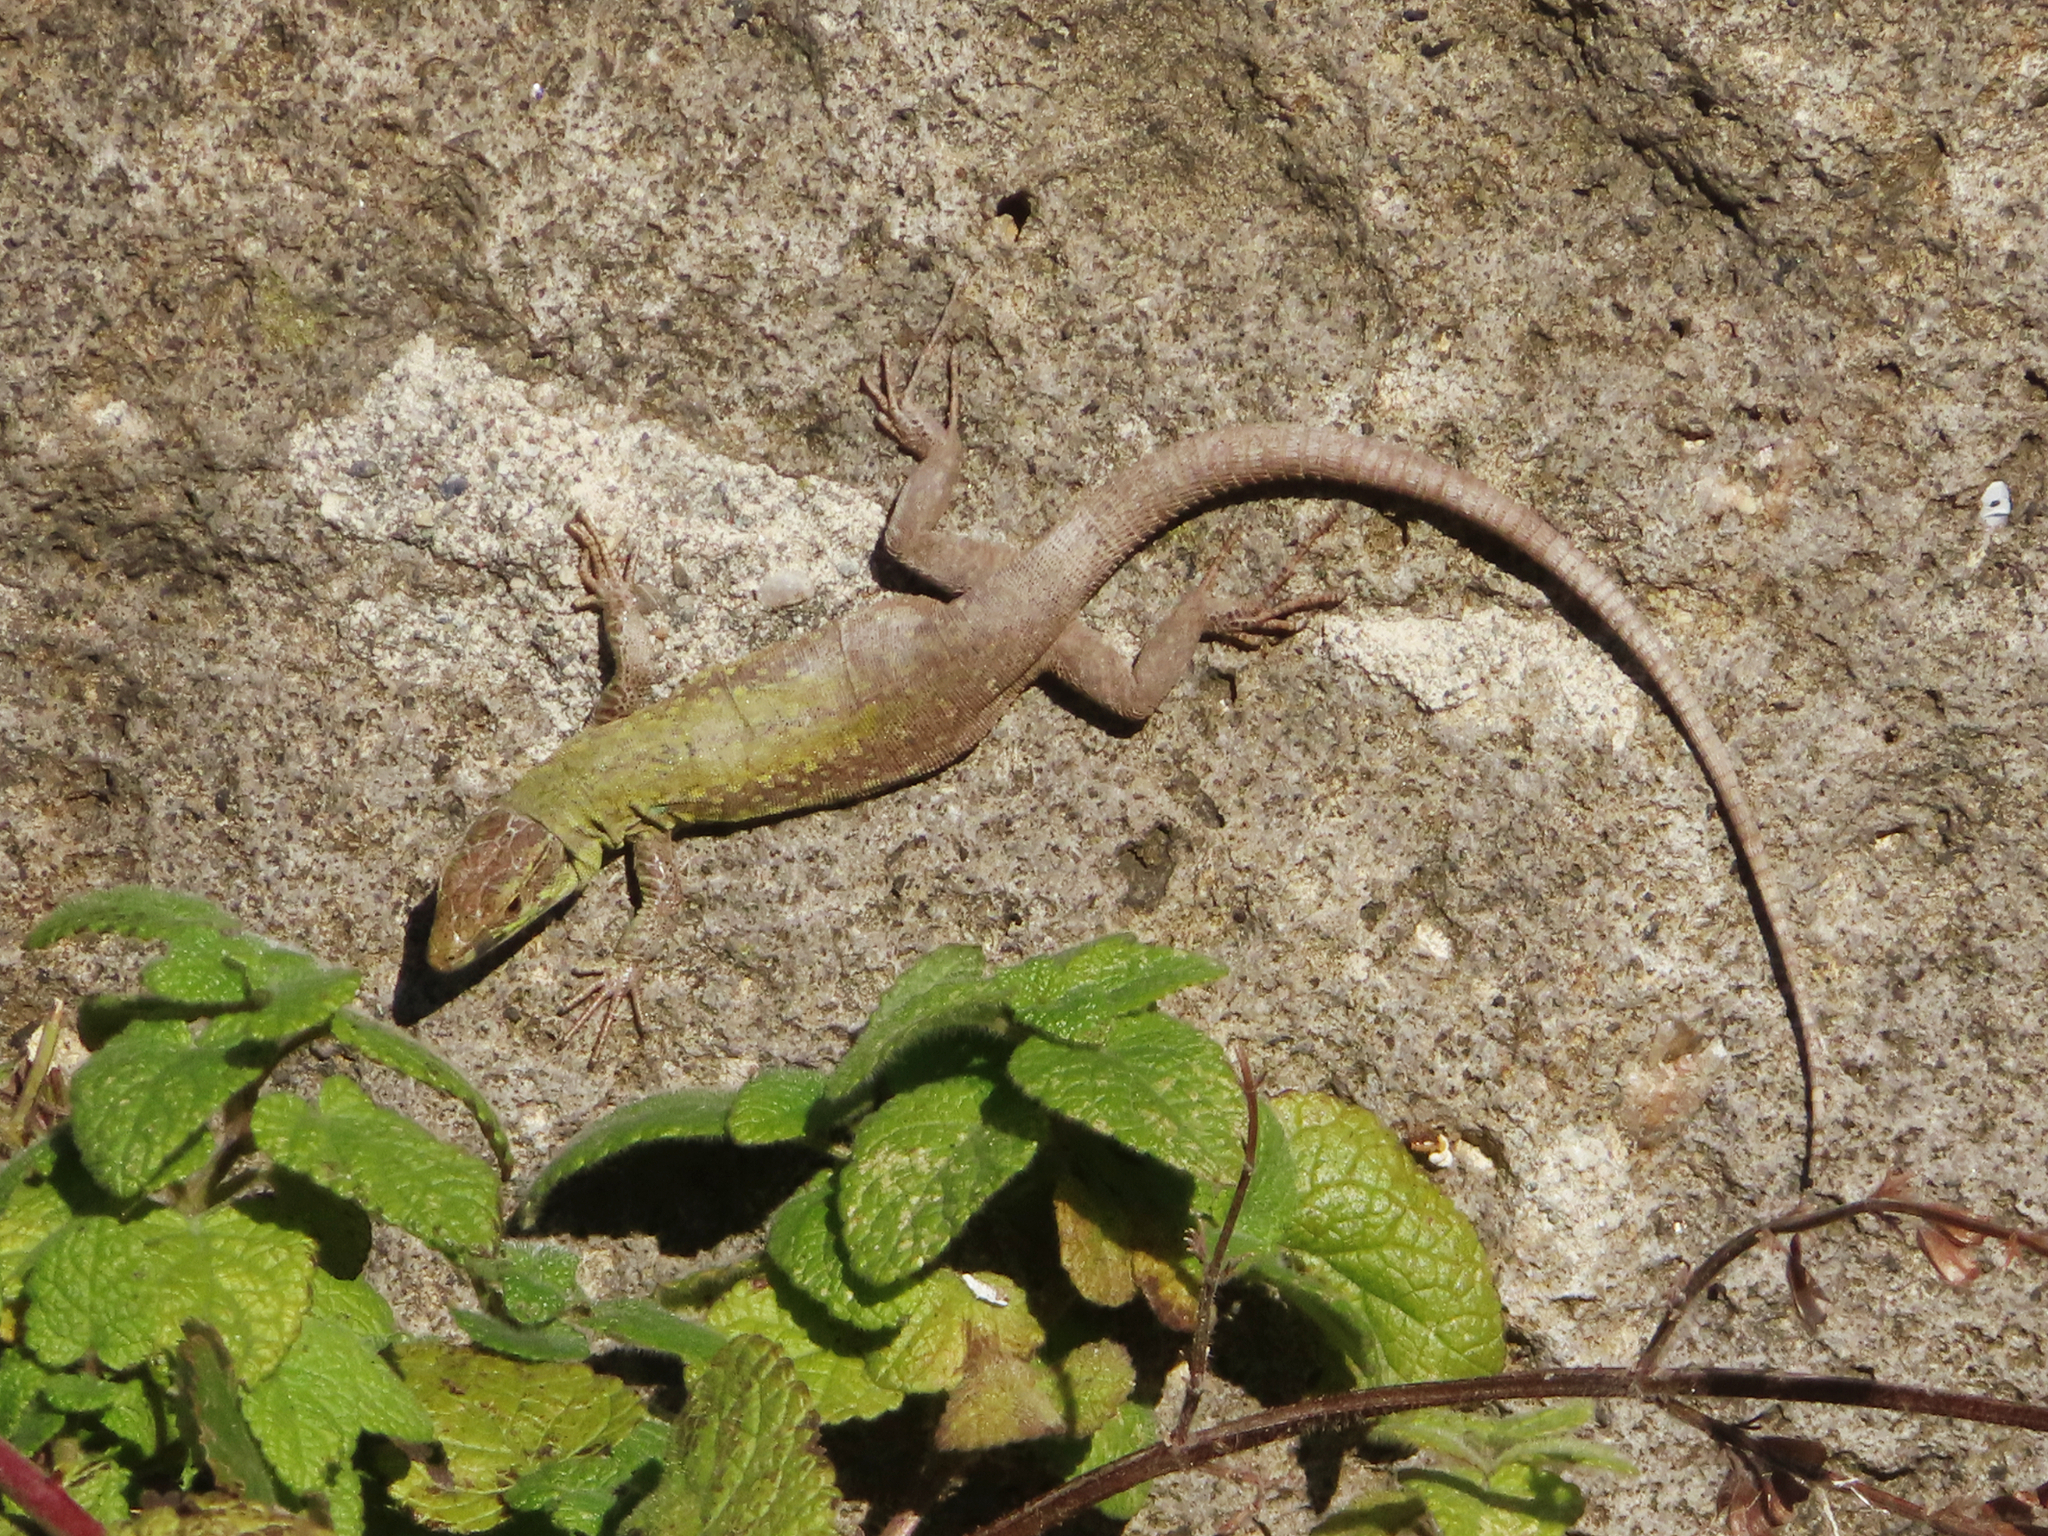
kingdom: Animalia
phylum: Chordata
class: Squamata
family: Lacertidae
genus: Podarcis
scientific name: Podarcis siculus
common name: Italian wall lizard
